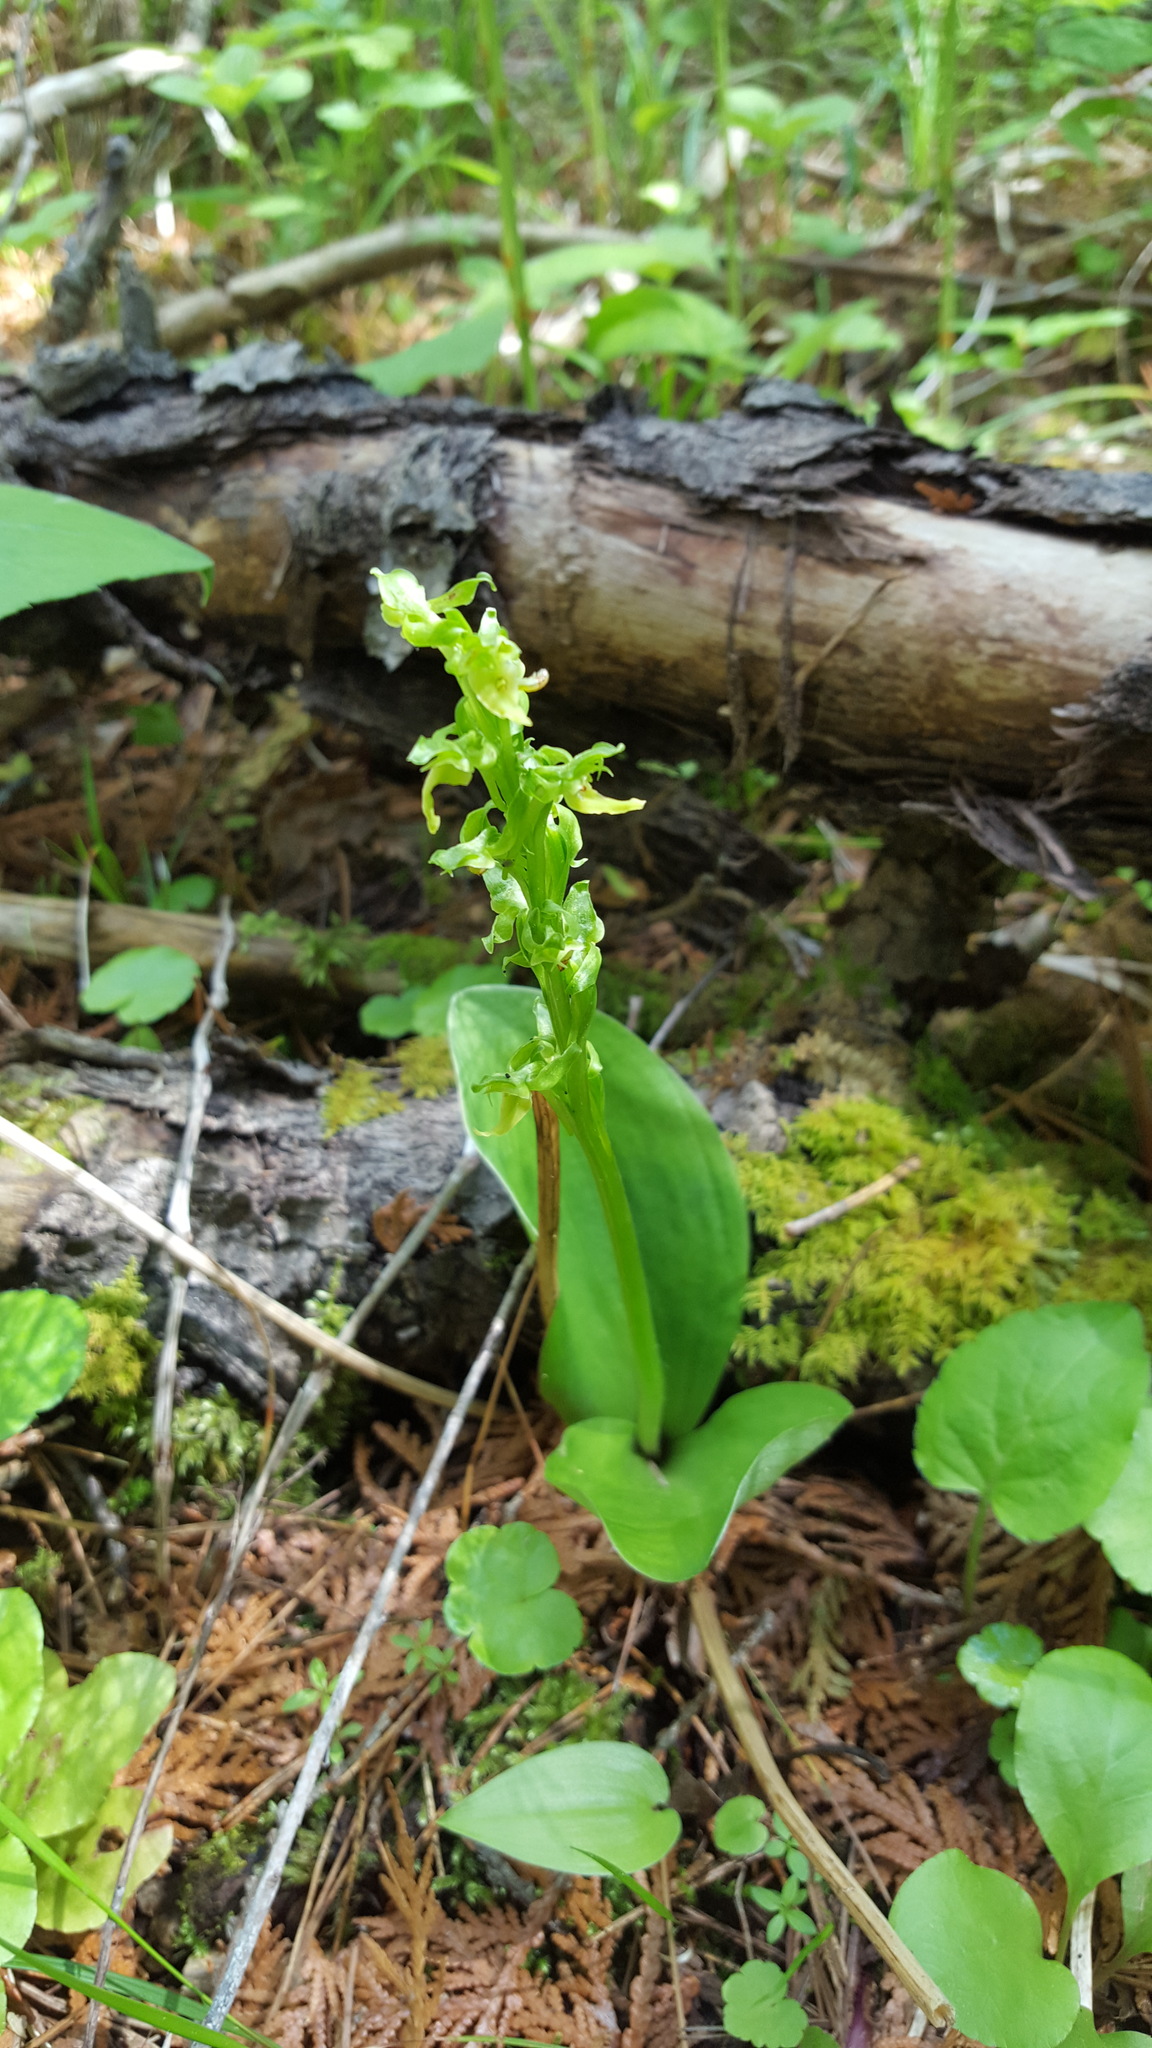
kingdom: Plantae
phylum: Tracheophyta
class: Liliopsida
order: Asparagales
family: Orchidaceae
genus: Platanthera
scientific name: Platanthera hookeri
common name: Hooker's orchid
